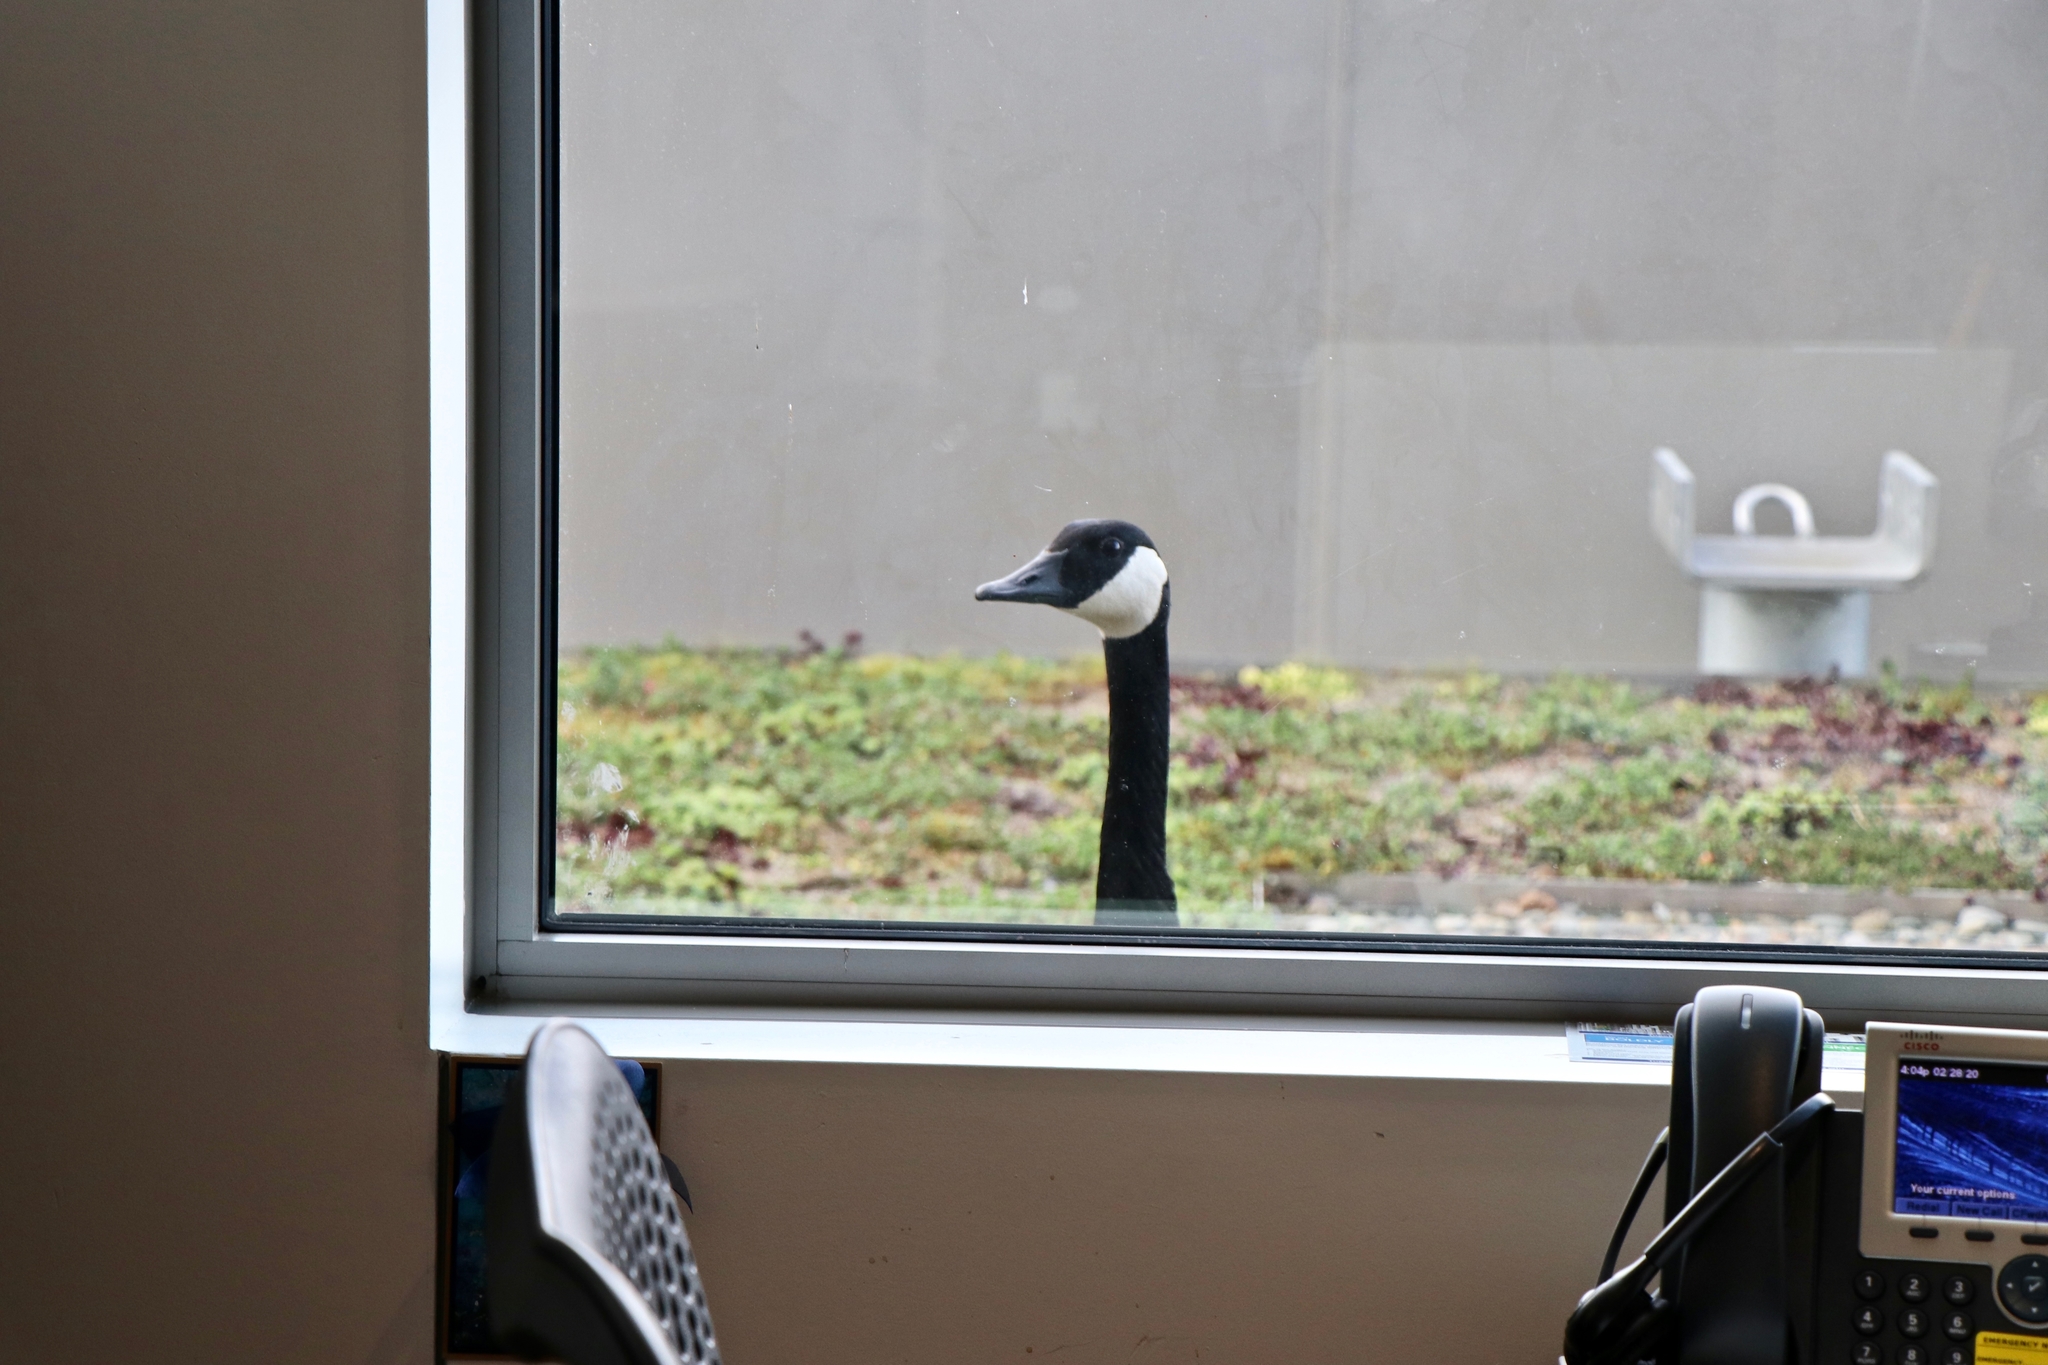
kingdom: Animalia
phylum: Chordata
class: Aves
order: Anseriformes
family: Anatidae
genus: Branta
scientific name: Branta canadensis
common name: Canada goose
